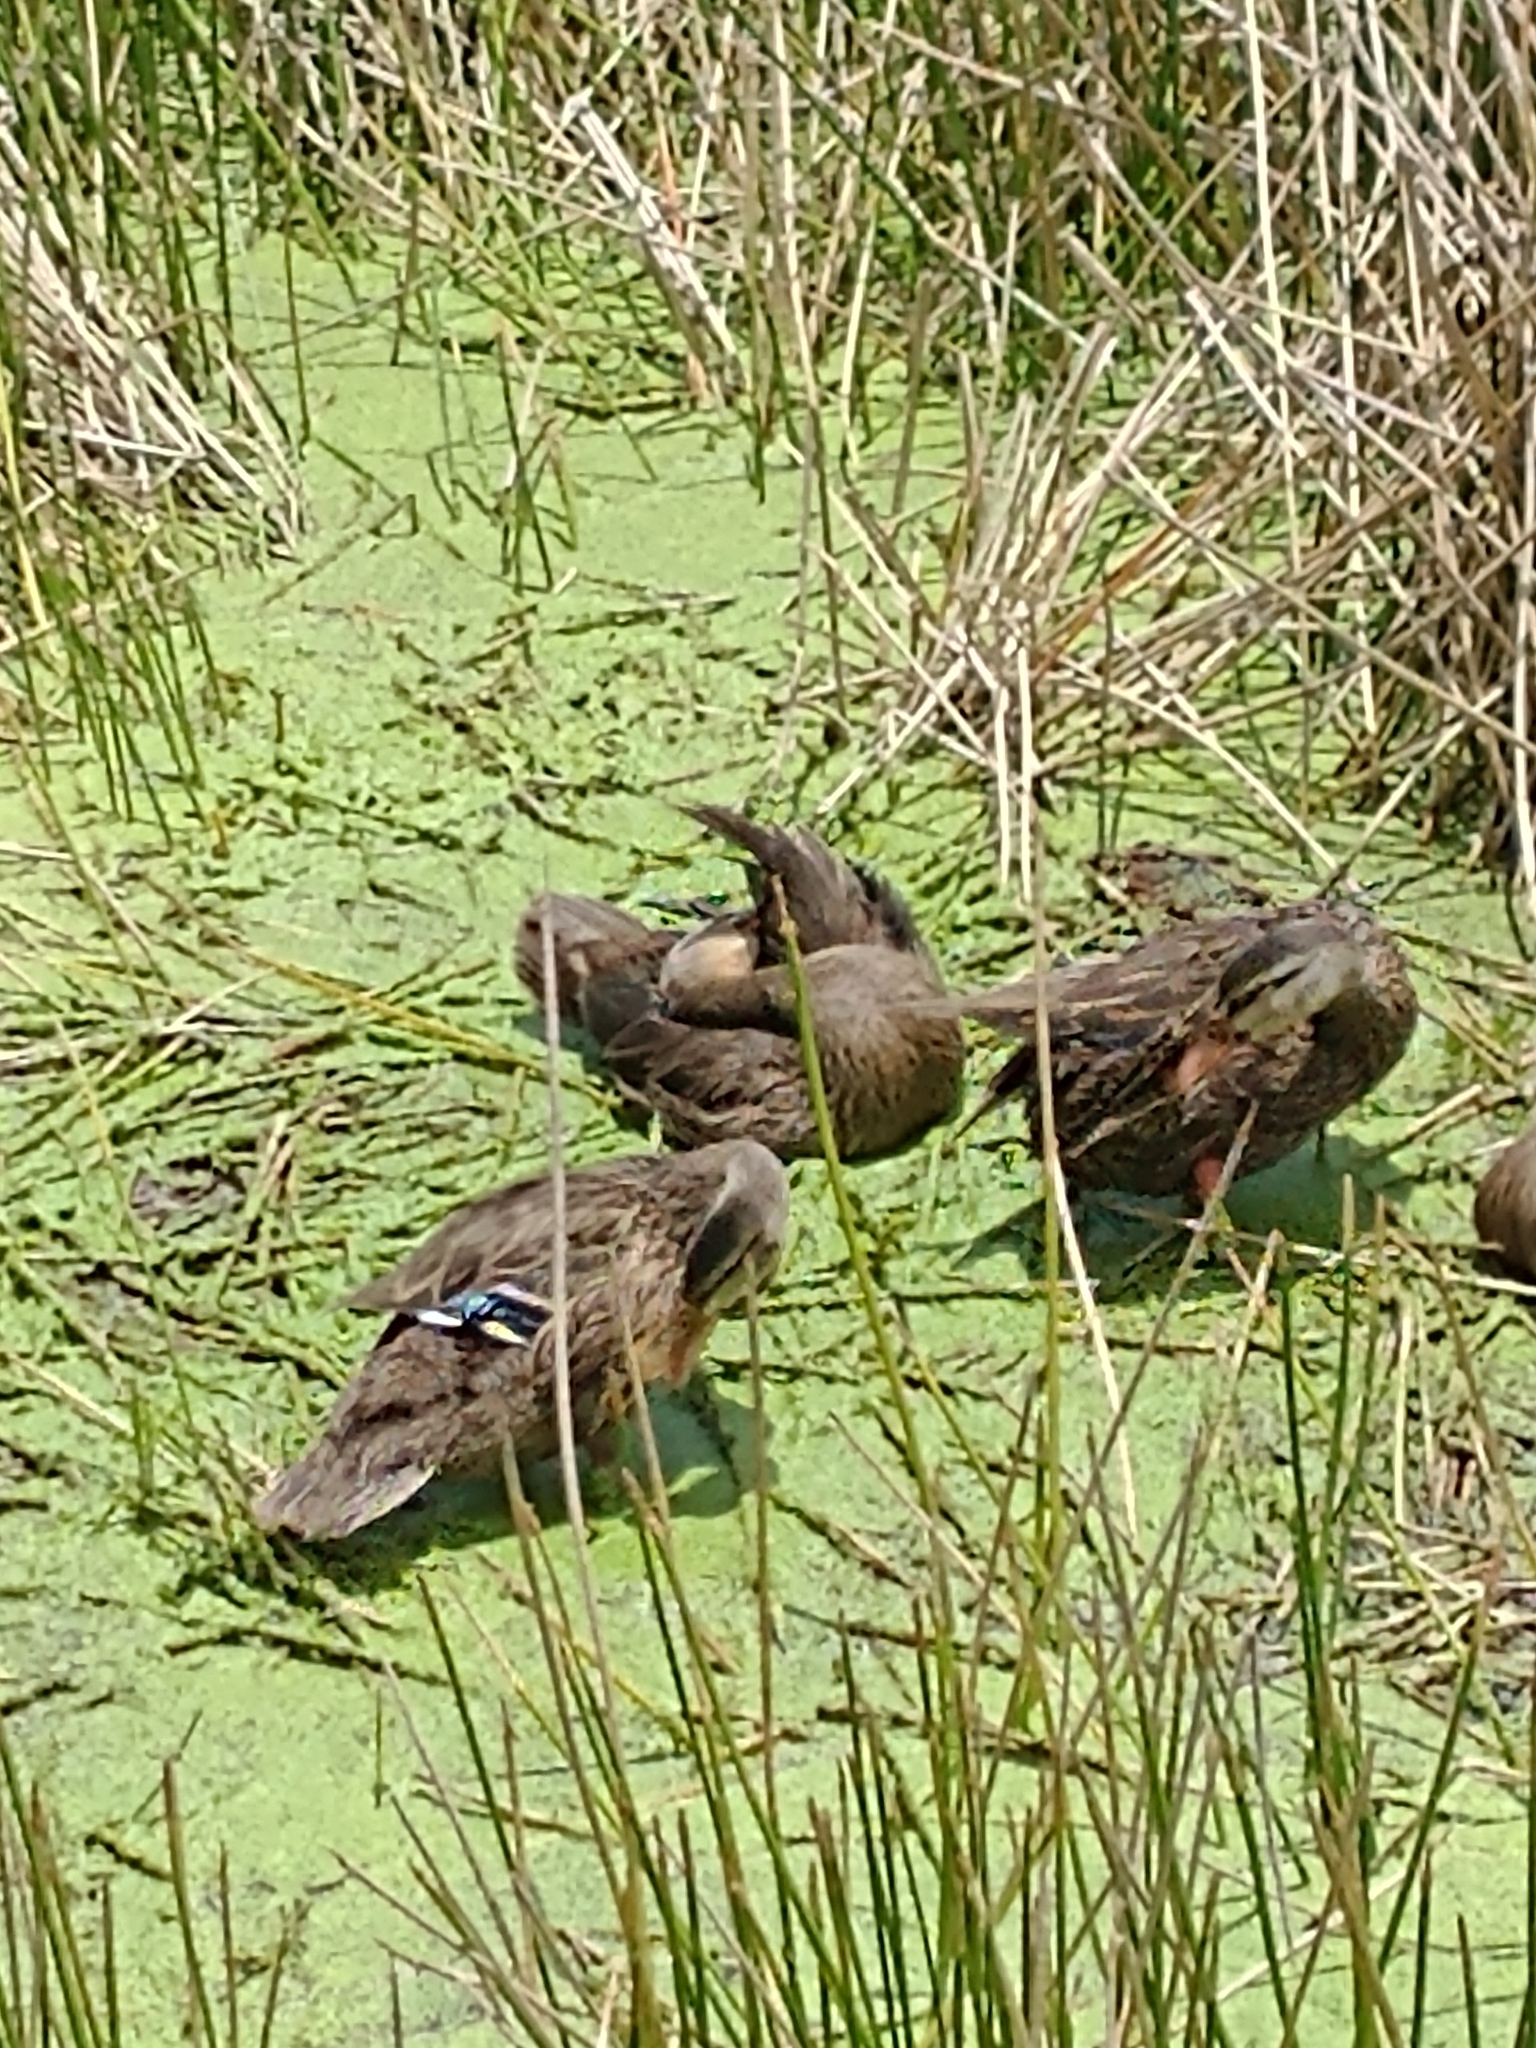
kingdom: Animalia
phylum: Chordata
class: Aves
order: Anseriformes
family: Anatidae
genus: Anas
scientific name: Anas
